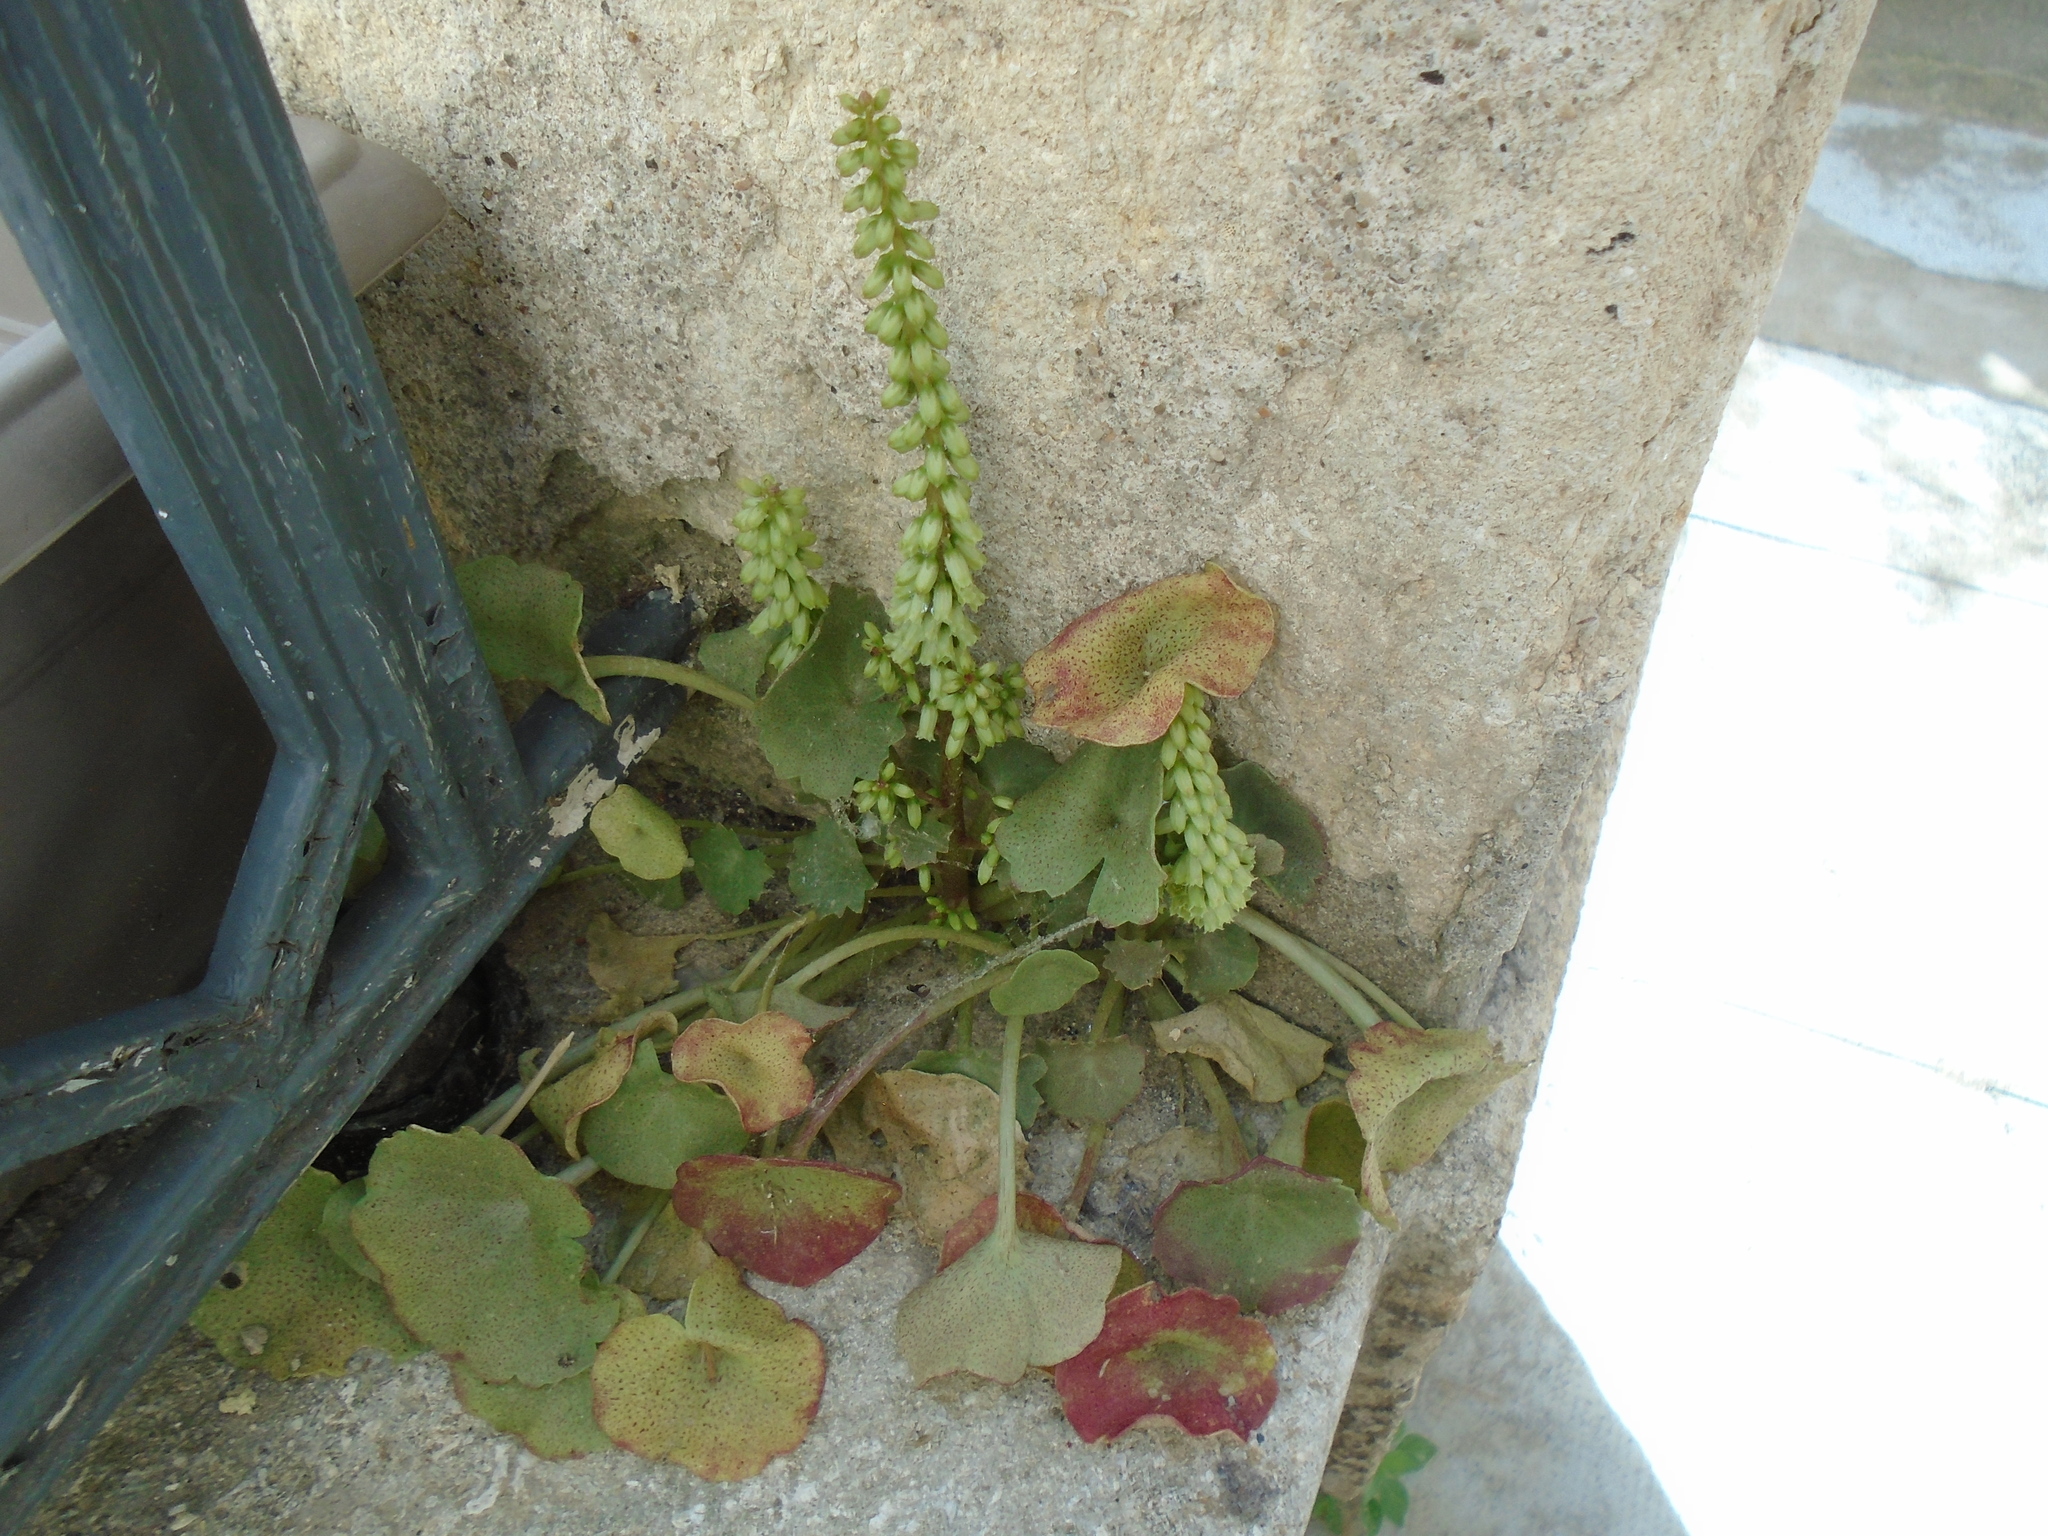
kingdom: Plantae
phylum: Tracheophyta
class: Magnoliopsida
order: Saxifragales
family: Crassulaceae
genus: Umbilicus
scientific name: Umbilicus rupestris
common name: Navelwort
